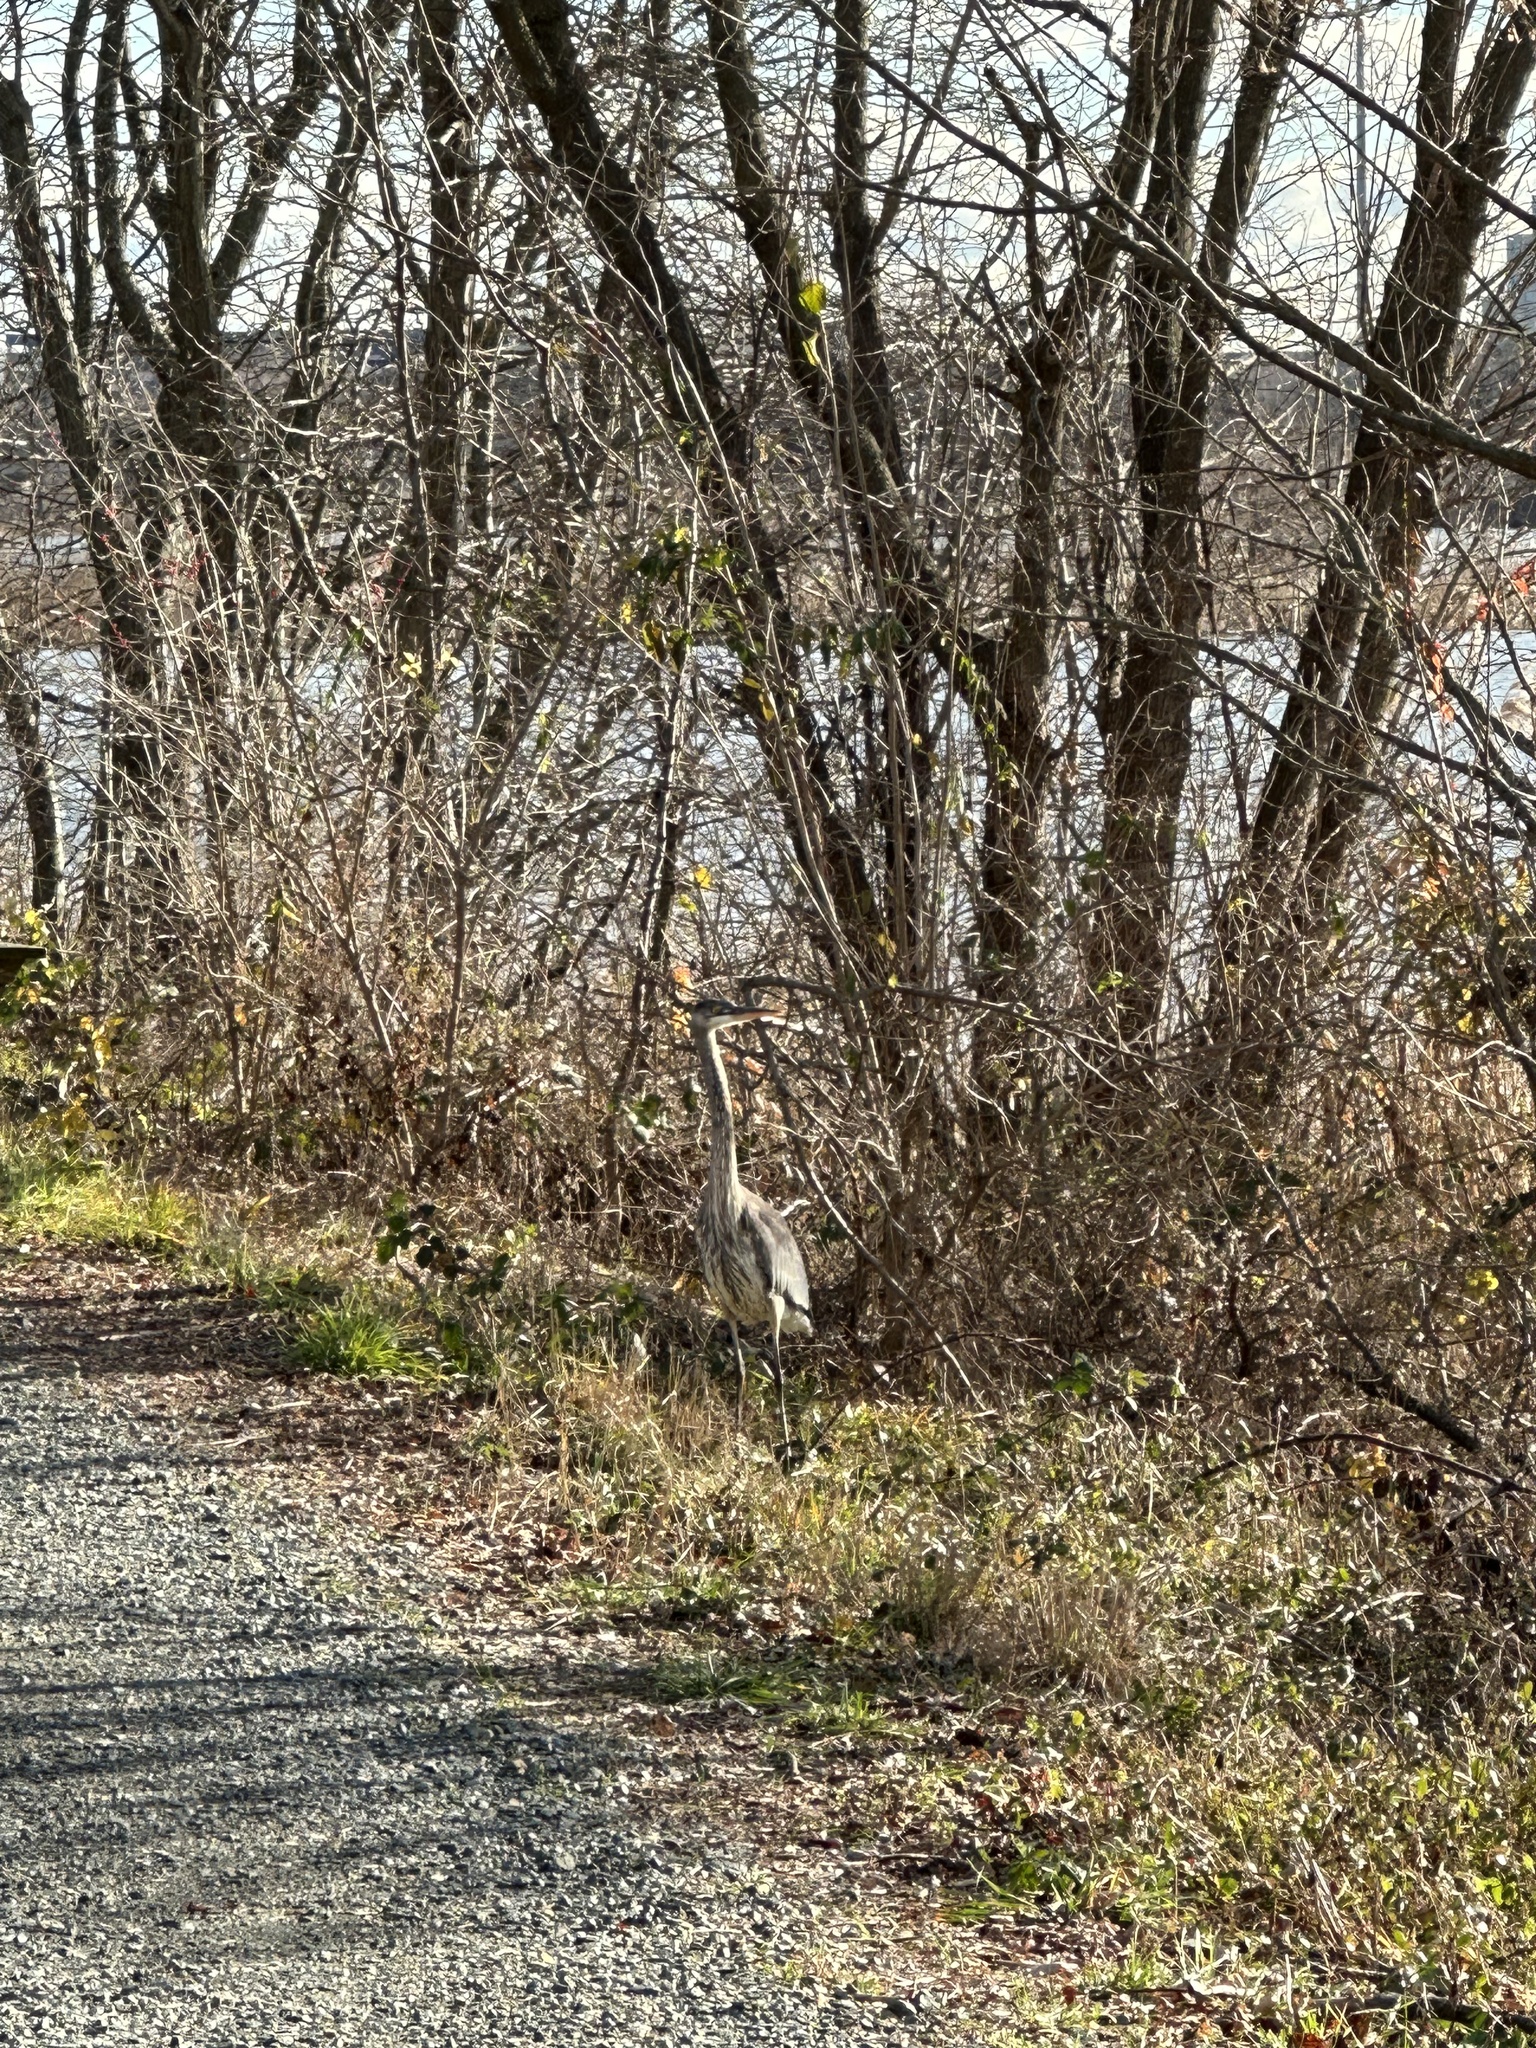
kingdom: Animalia
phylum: Chordata
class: Aves
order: Pelecaniformes
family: Ardeidae
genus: Ardea
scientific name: Ardea herodias
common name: Great blue heron
